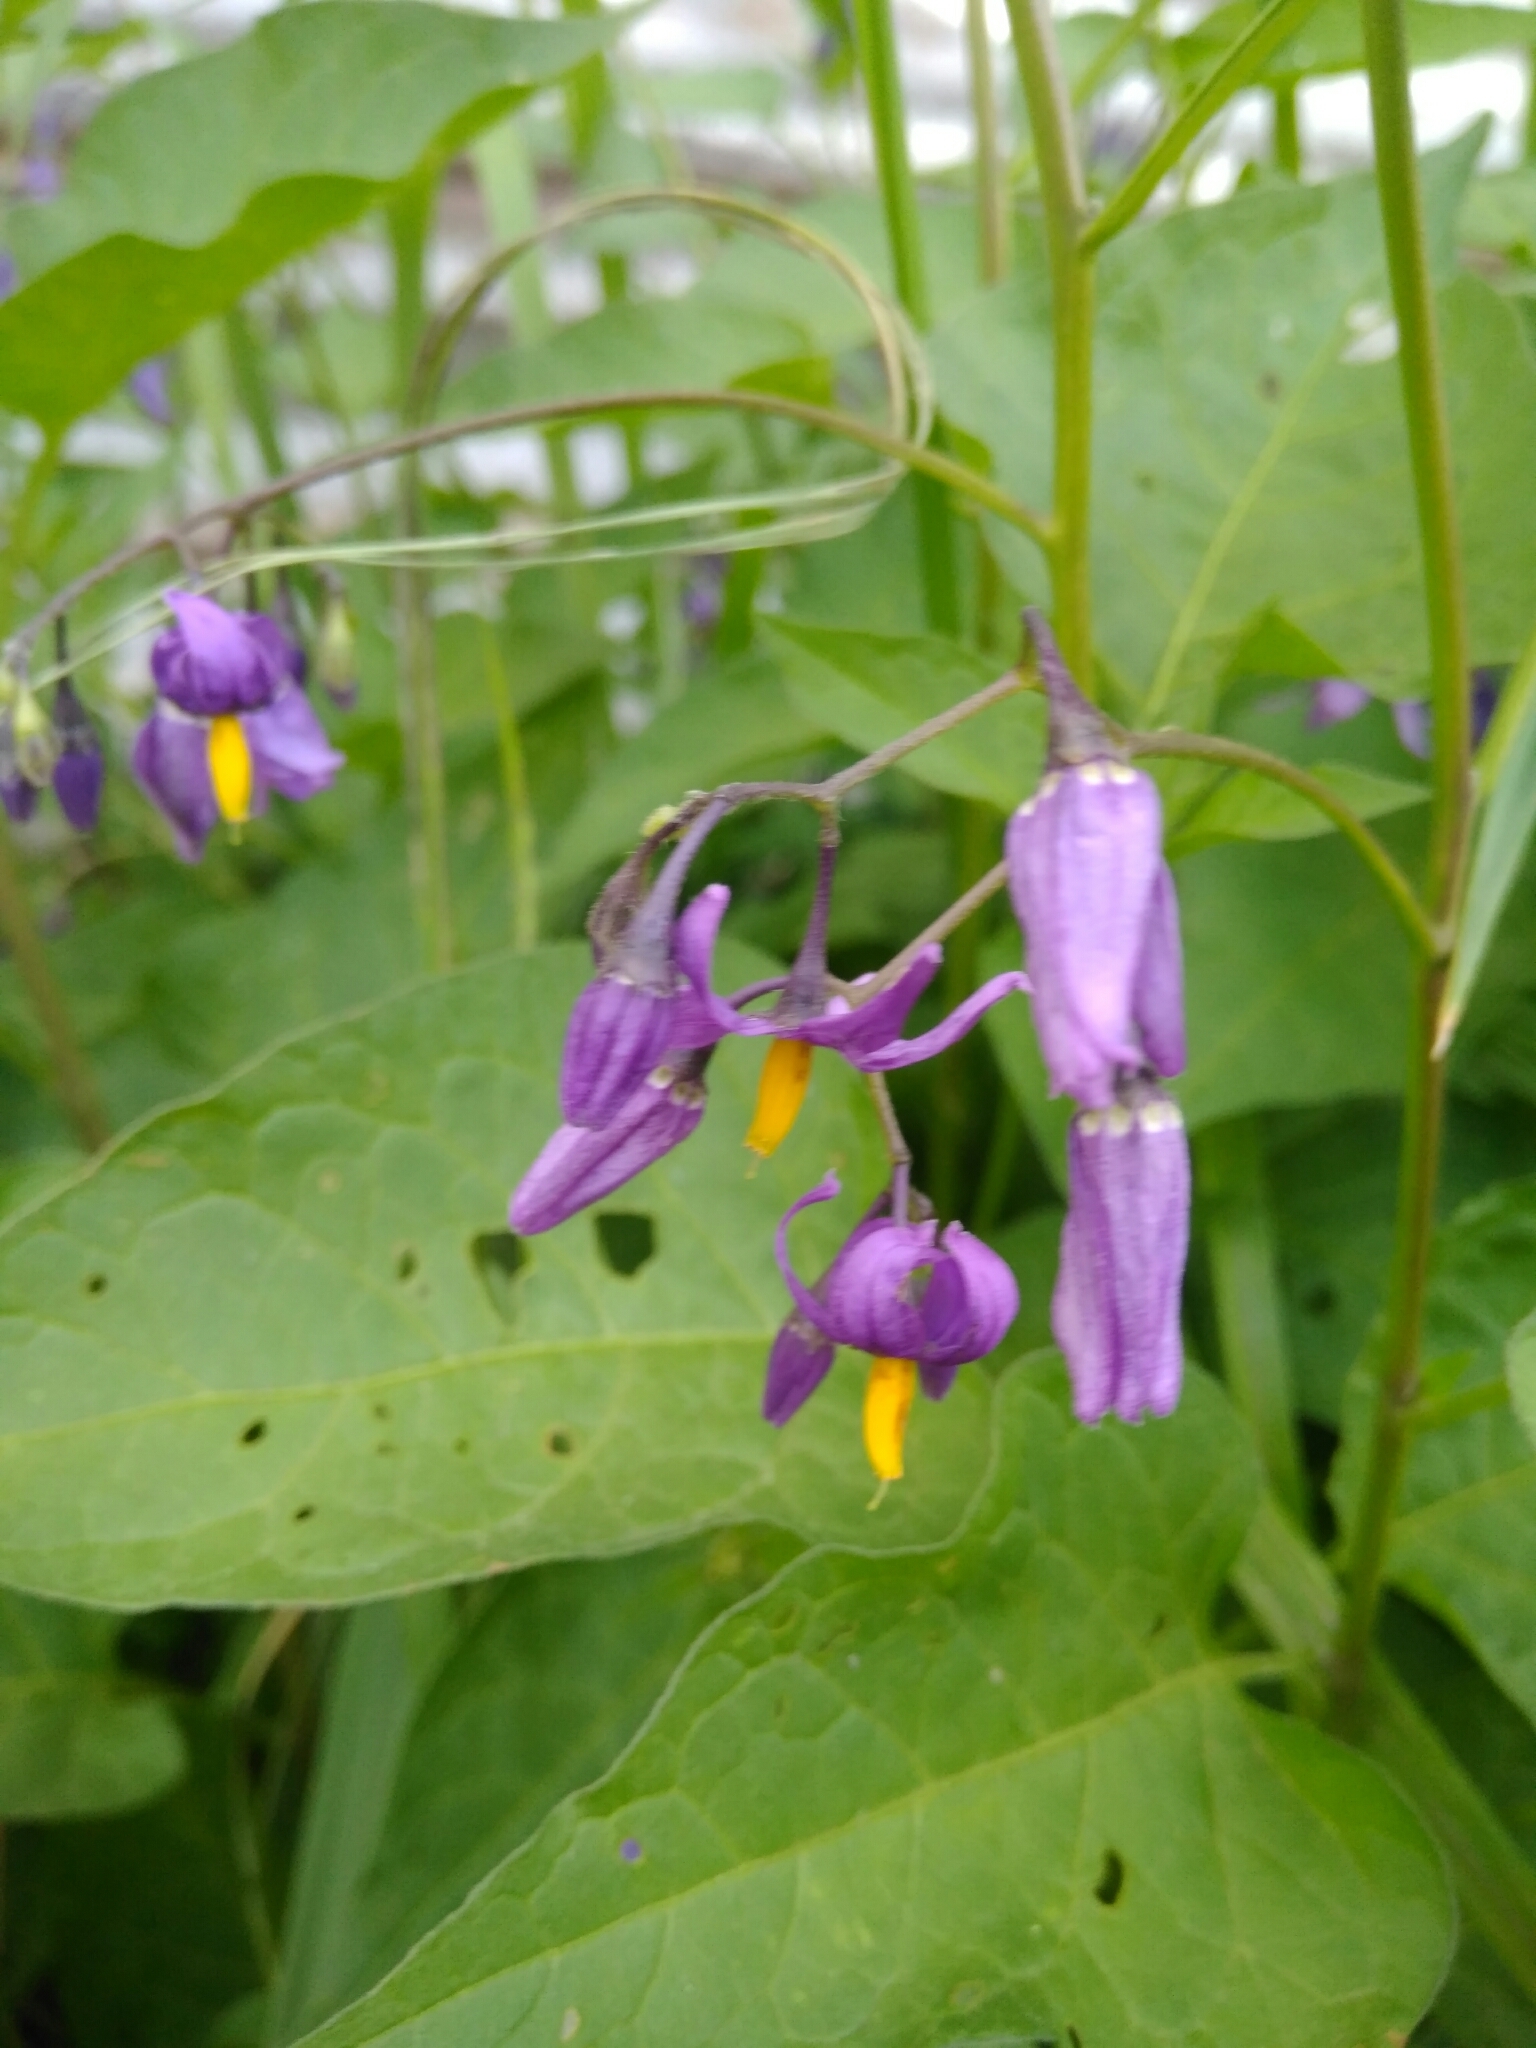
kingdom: Plantae
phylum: Tracheophyta
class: Magnoliopsida
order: Solanales
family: Solanaceae
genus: Solanum
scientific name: Solanum dulcamara
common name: Climbing nightshade
